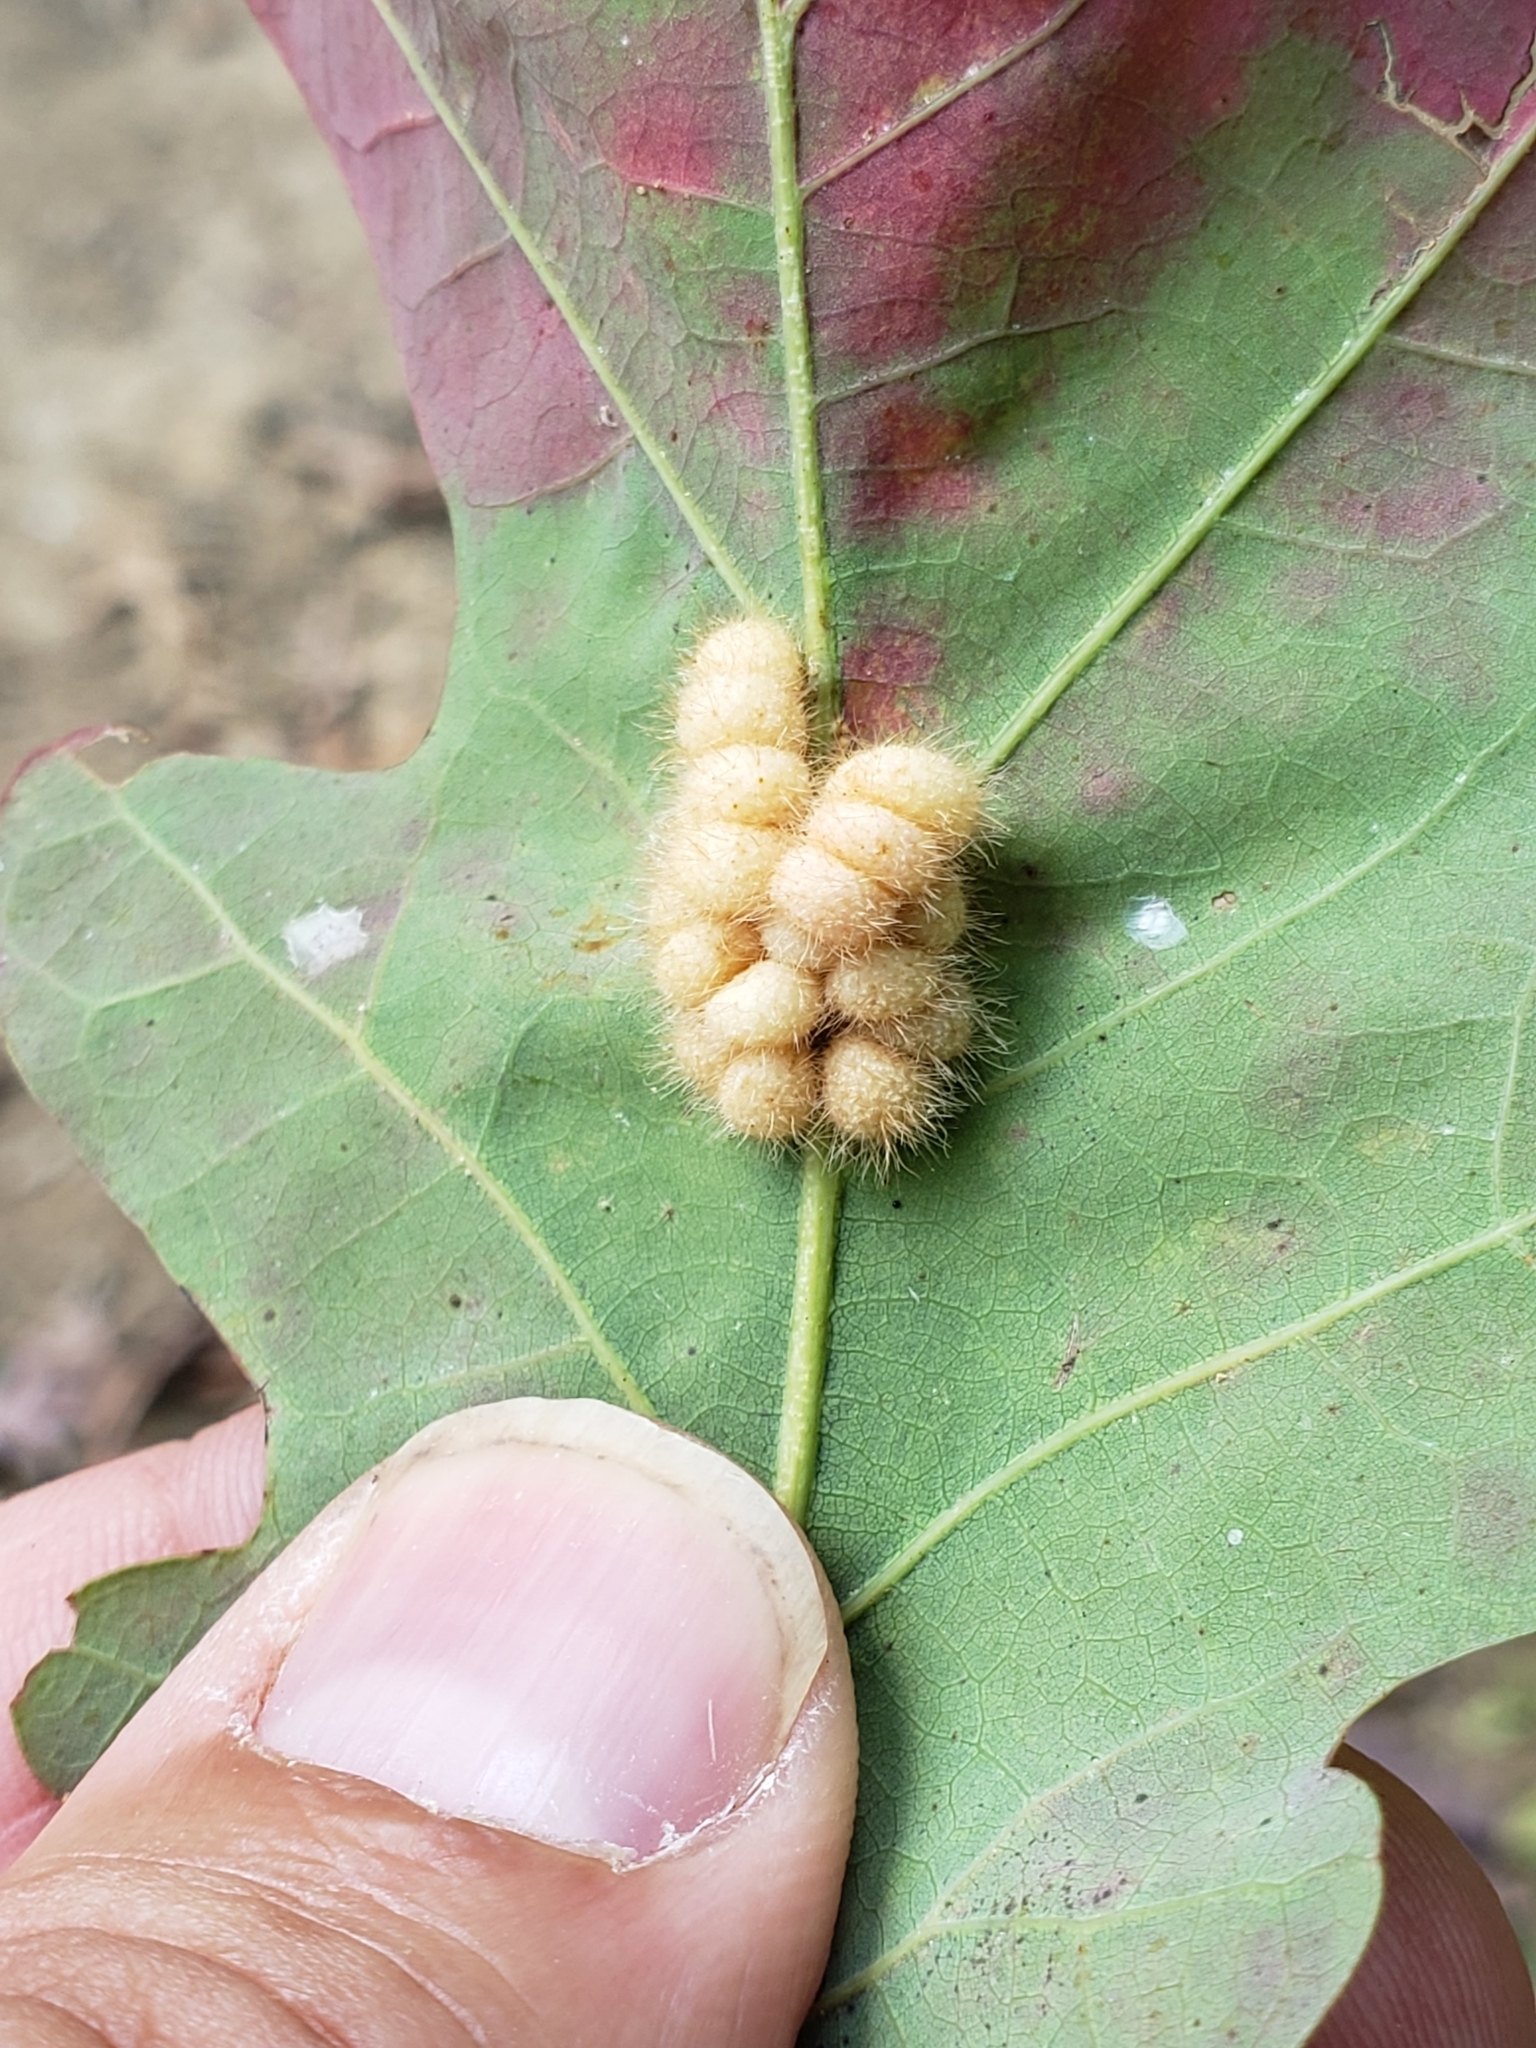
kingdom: Animalia
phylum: Arthropoda
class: Insecta
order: Hymenoptera
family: Cynipidae
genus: Andricus
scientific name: Andricus
